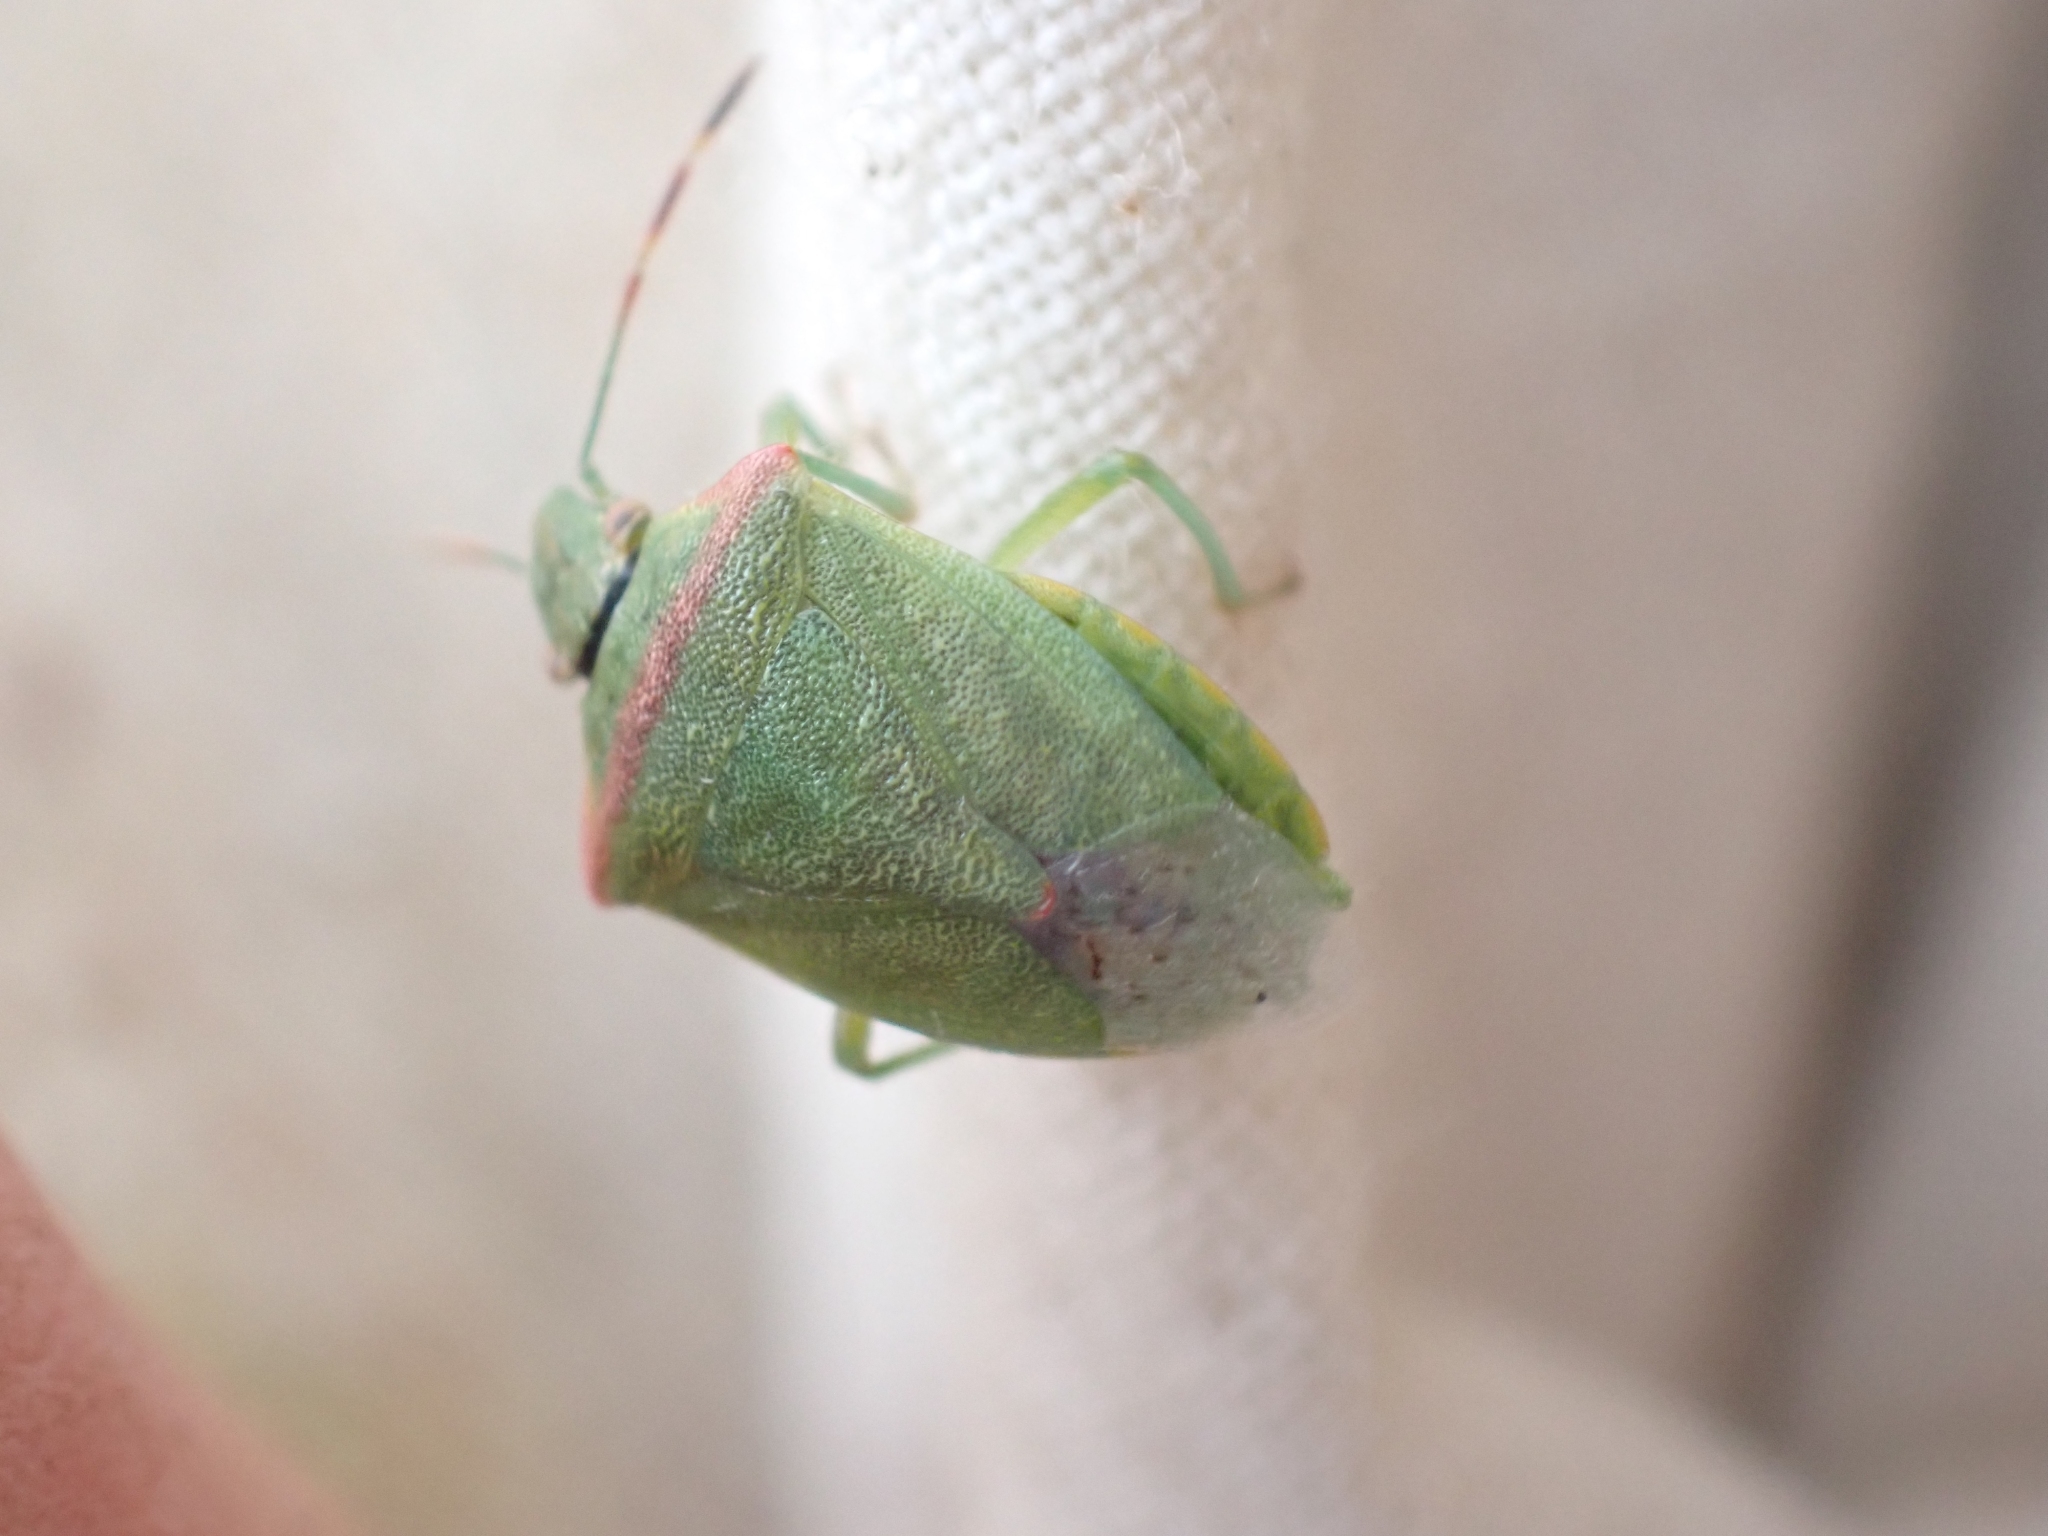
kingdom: Animalia
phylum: Arthropoda
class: Insecta
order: Hemiptera
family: Pentatomidae
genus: Thyanta
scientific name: Thyanta pallidovirens
